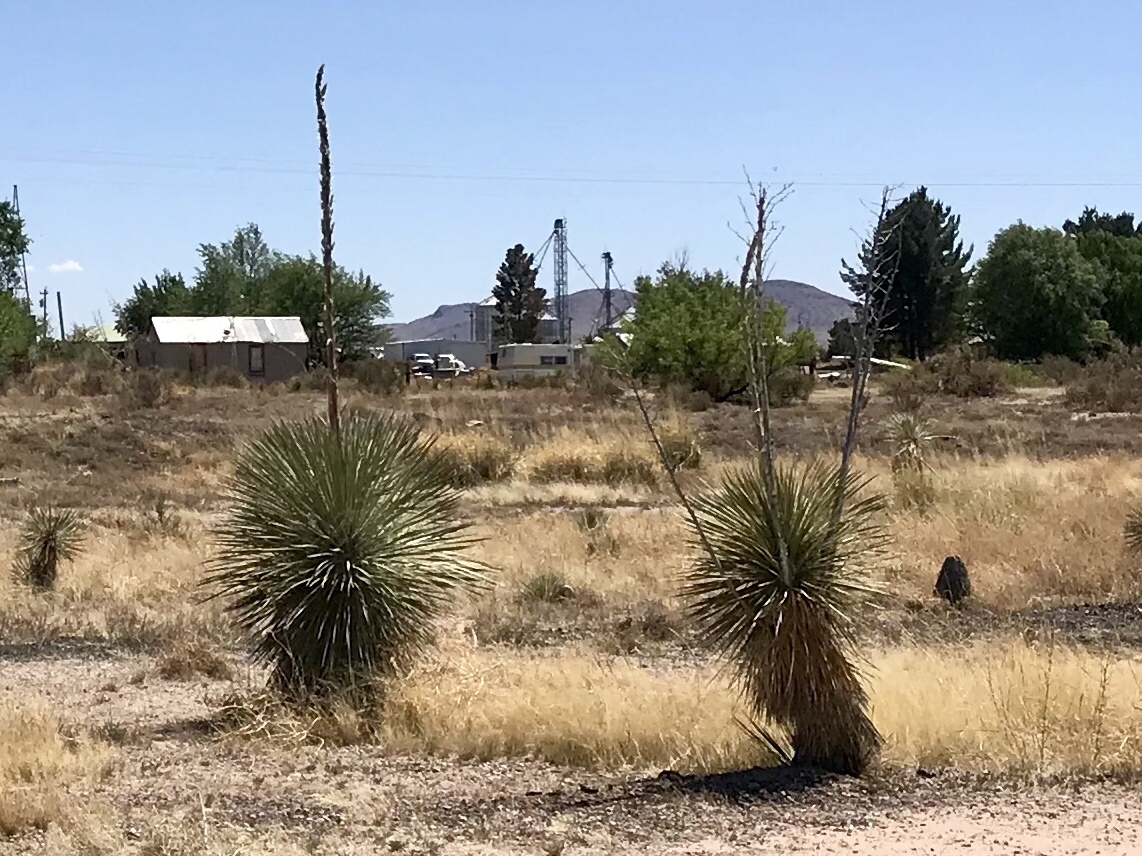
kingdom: Plantae
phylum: Tracheophyta
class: Liliopsida
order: Asparagales
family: Asparagaceae
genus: Yucca
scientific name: Yucca elata
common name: Palmella
